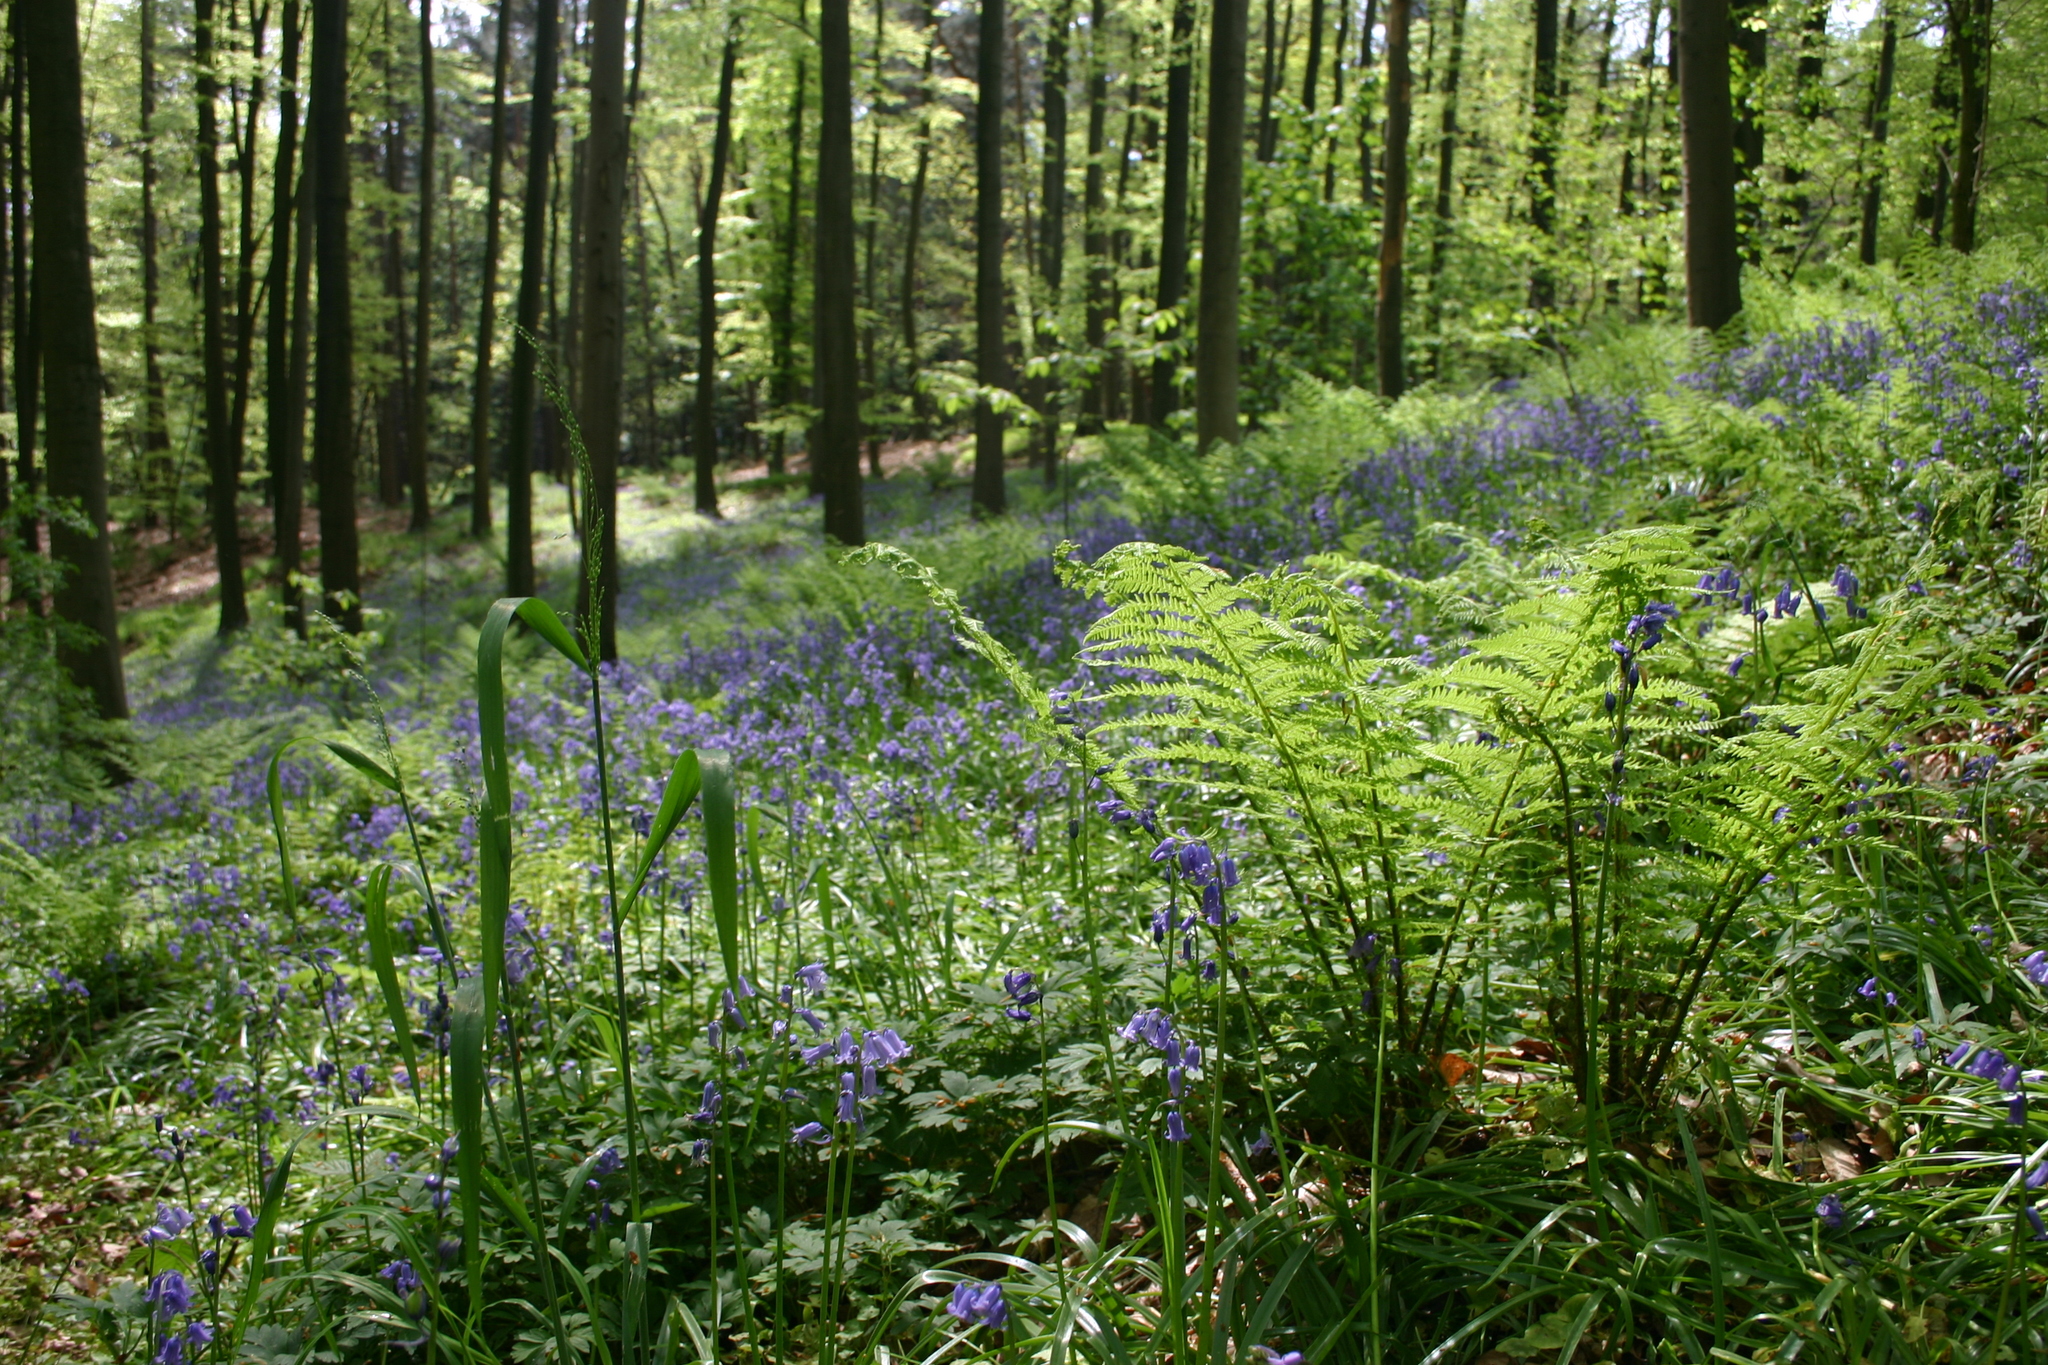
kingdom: Plantae
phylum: Tracheophyta
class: Liliopsida
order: Asparagales
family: Asparagaceae
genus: Hyacinthoides
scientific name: Hyacinthoides non-scripta
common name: Bluebell
